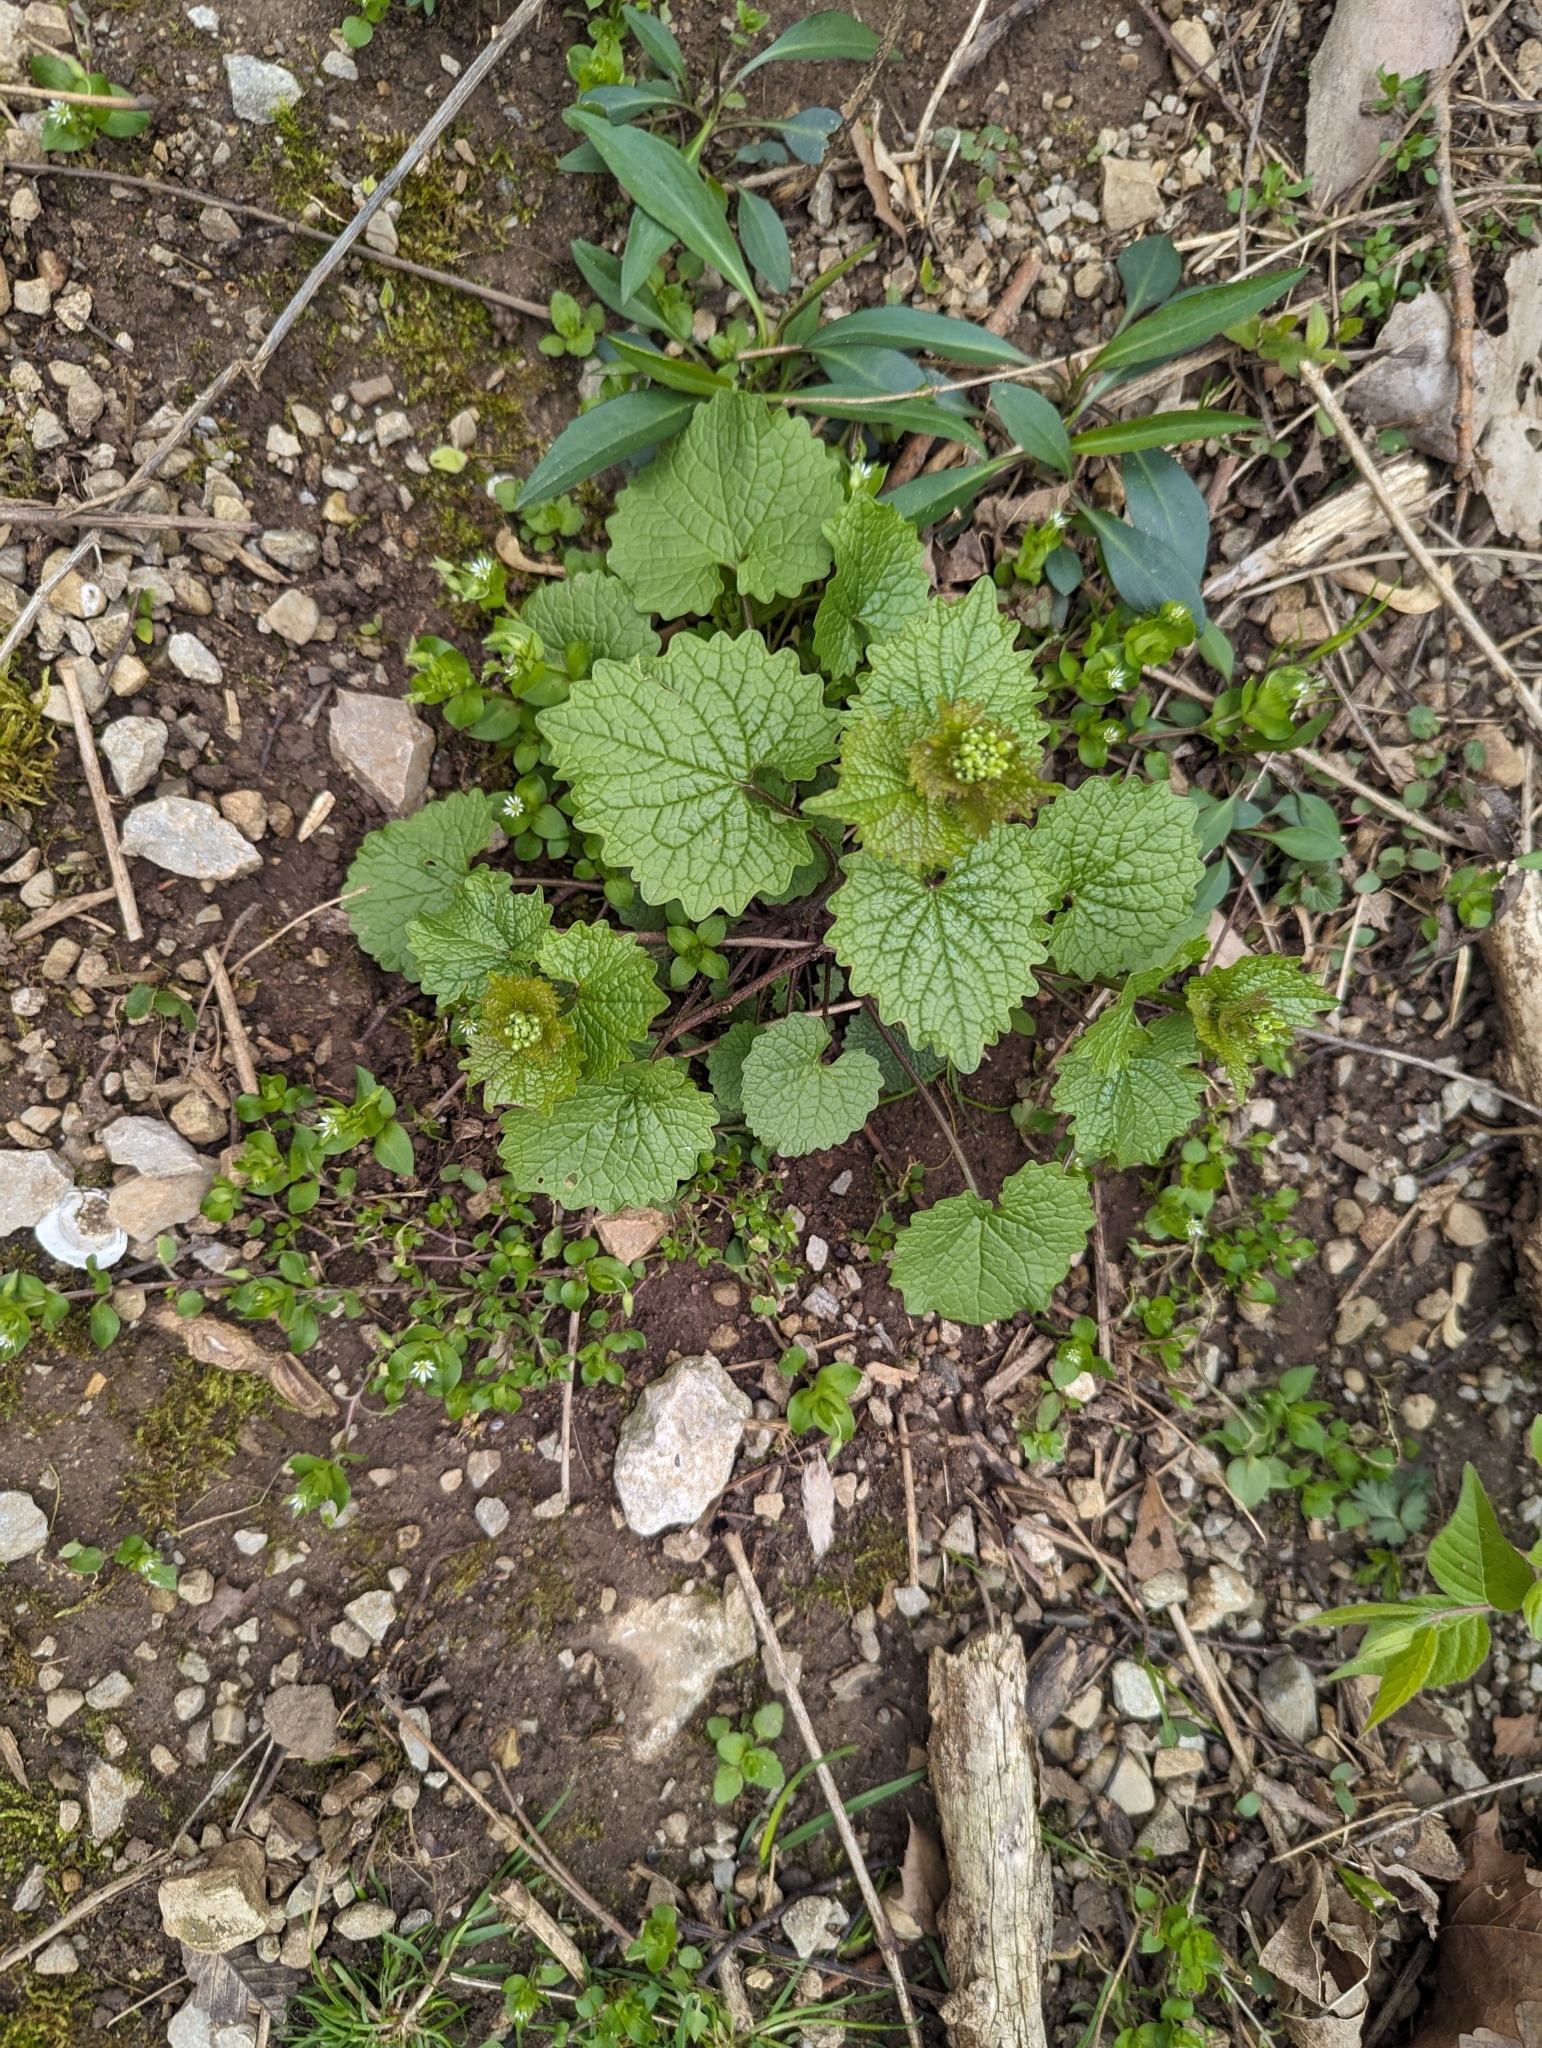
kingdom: Plantae
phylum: Tracheophyta
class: Magnoliopsida
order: Brassicales
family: Brassicaceae
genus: Alliaria
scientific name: Alliaria petiolata
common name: Garlic mustard
